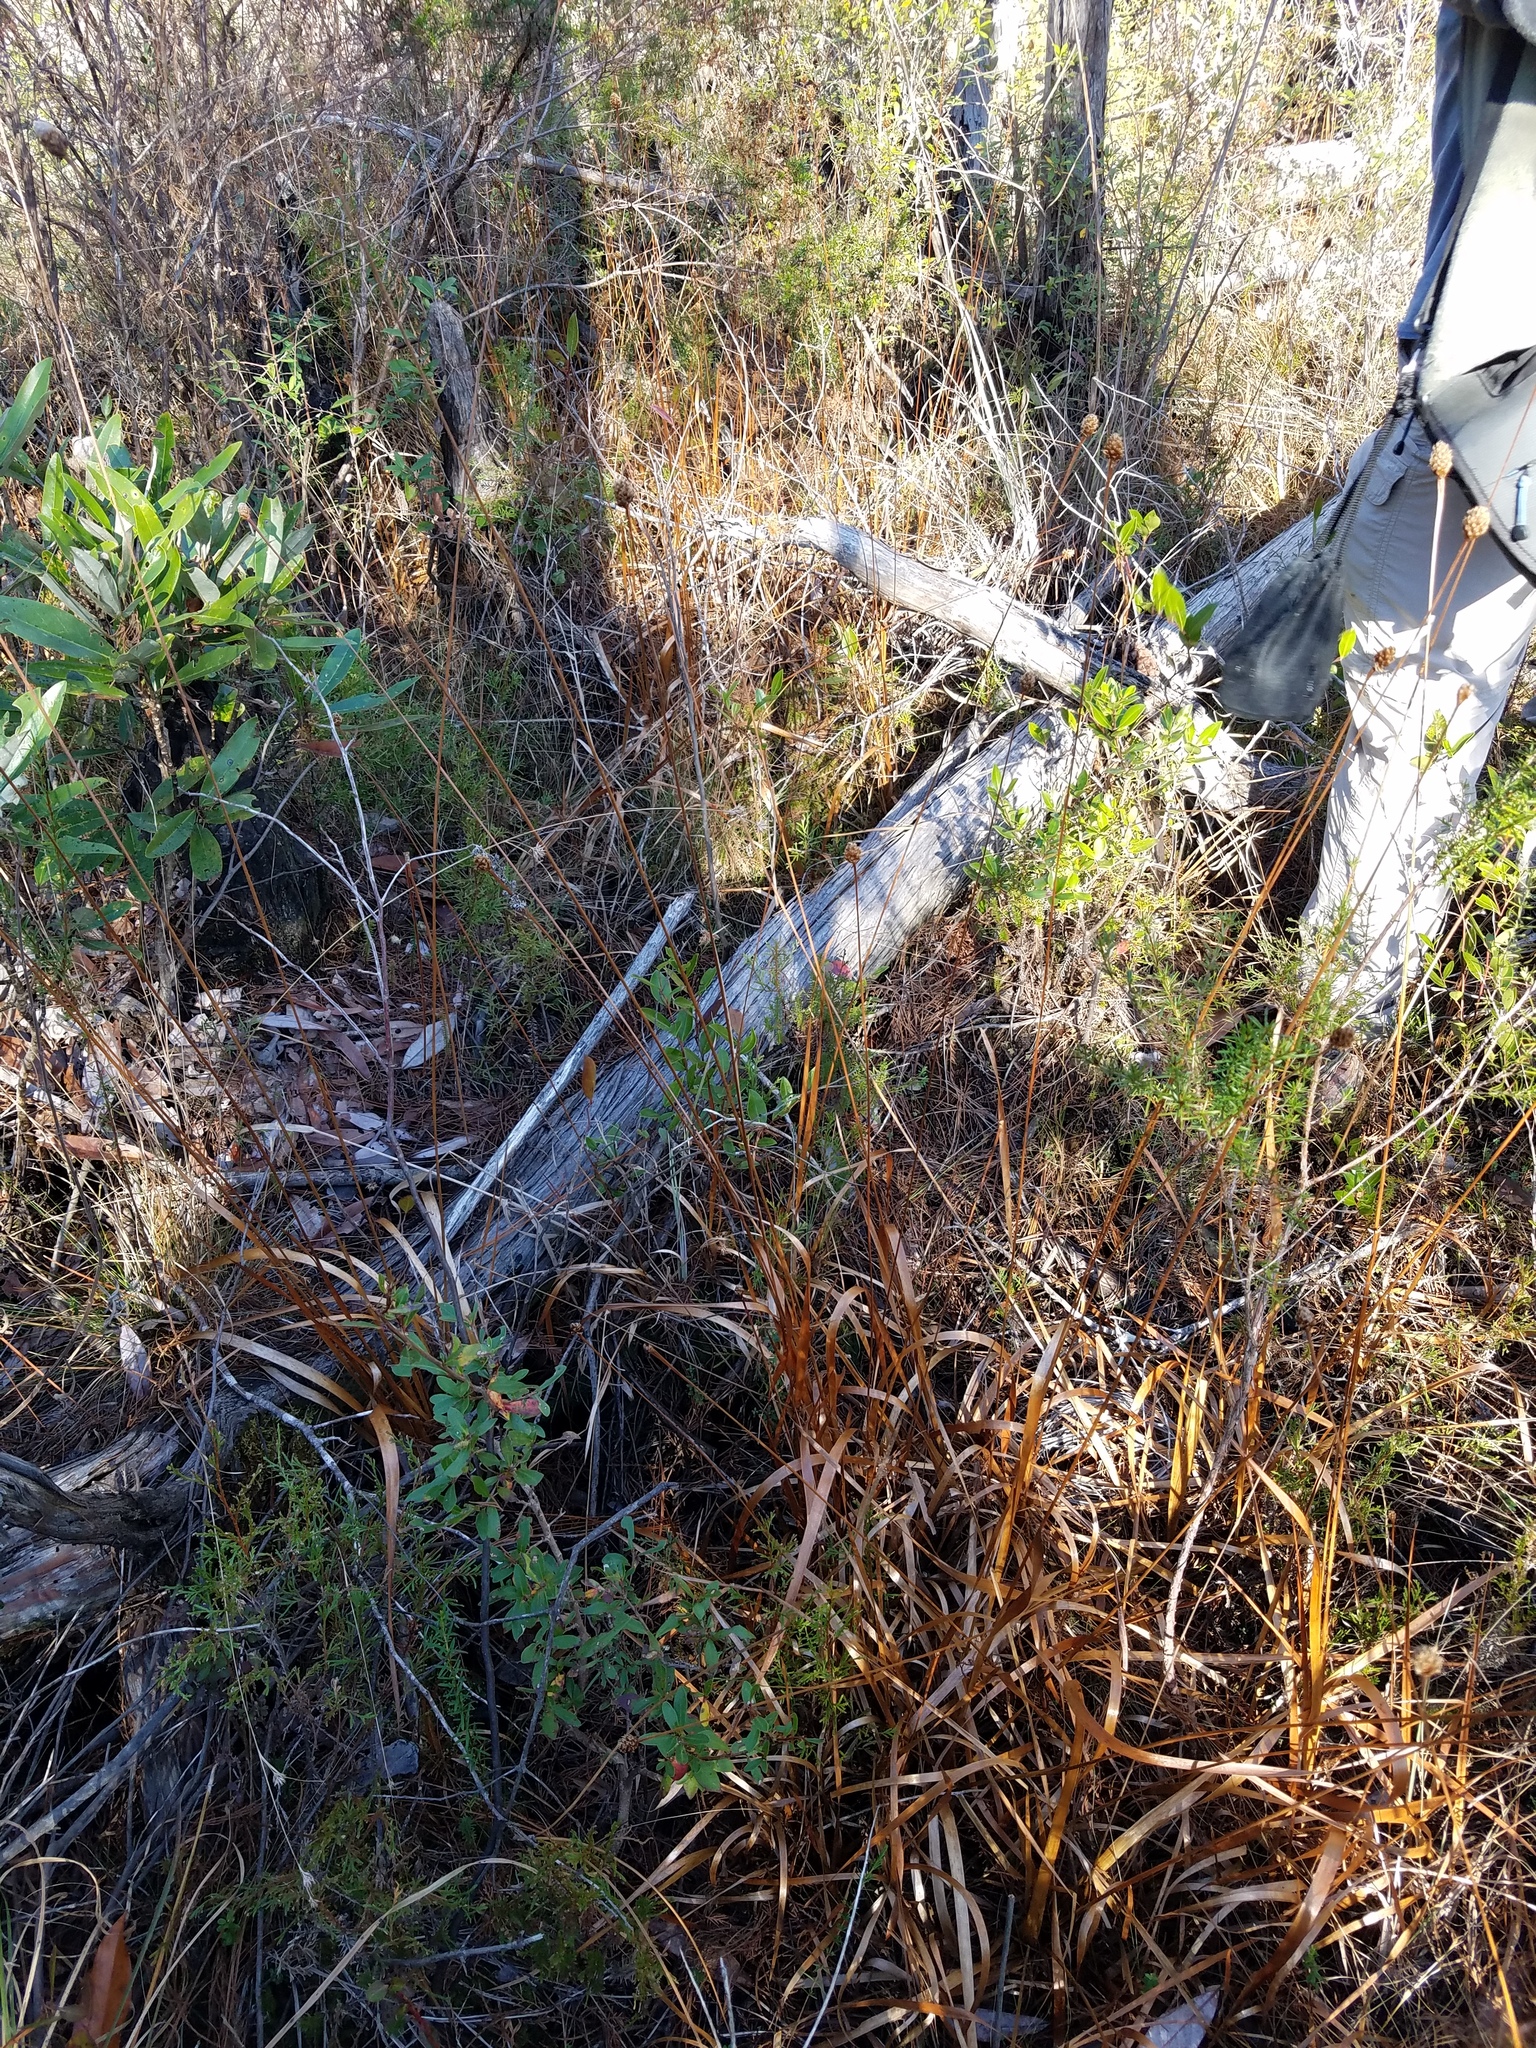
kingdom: Plantae
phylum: Tracheophyta
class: Liliopsida
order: Poales
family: Xyridaceae
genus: Xyris
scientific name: Xyris fimbriata
